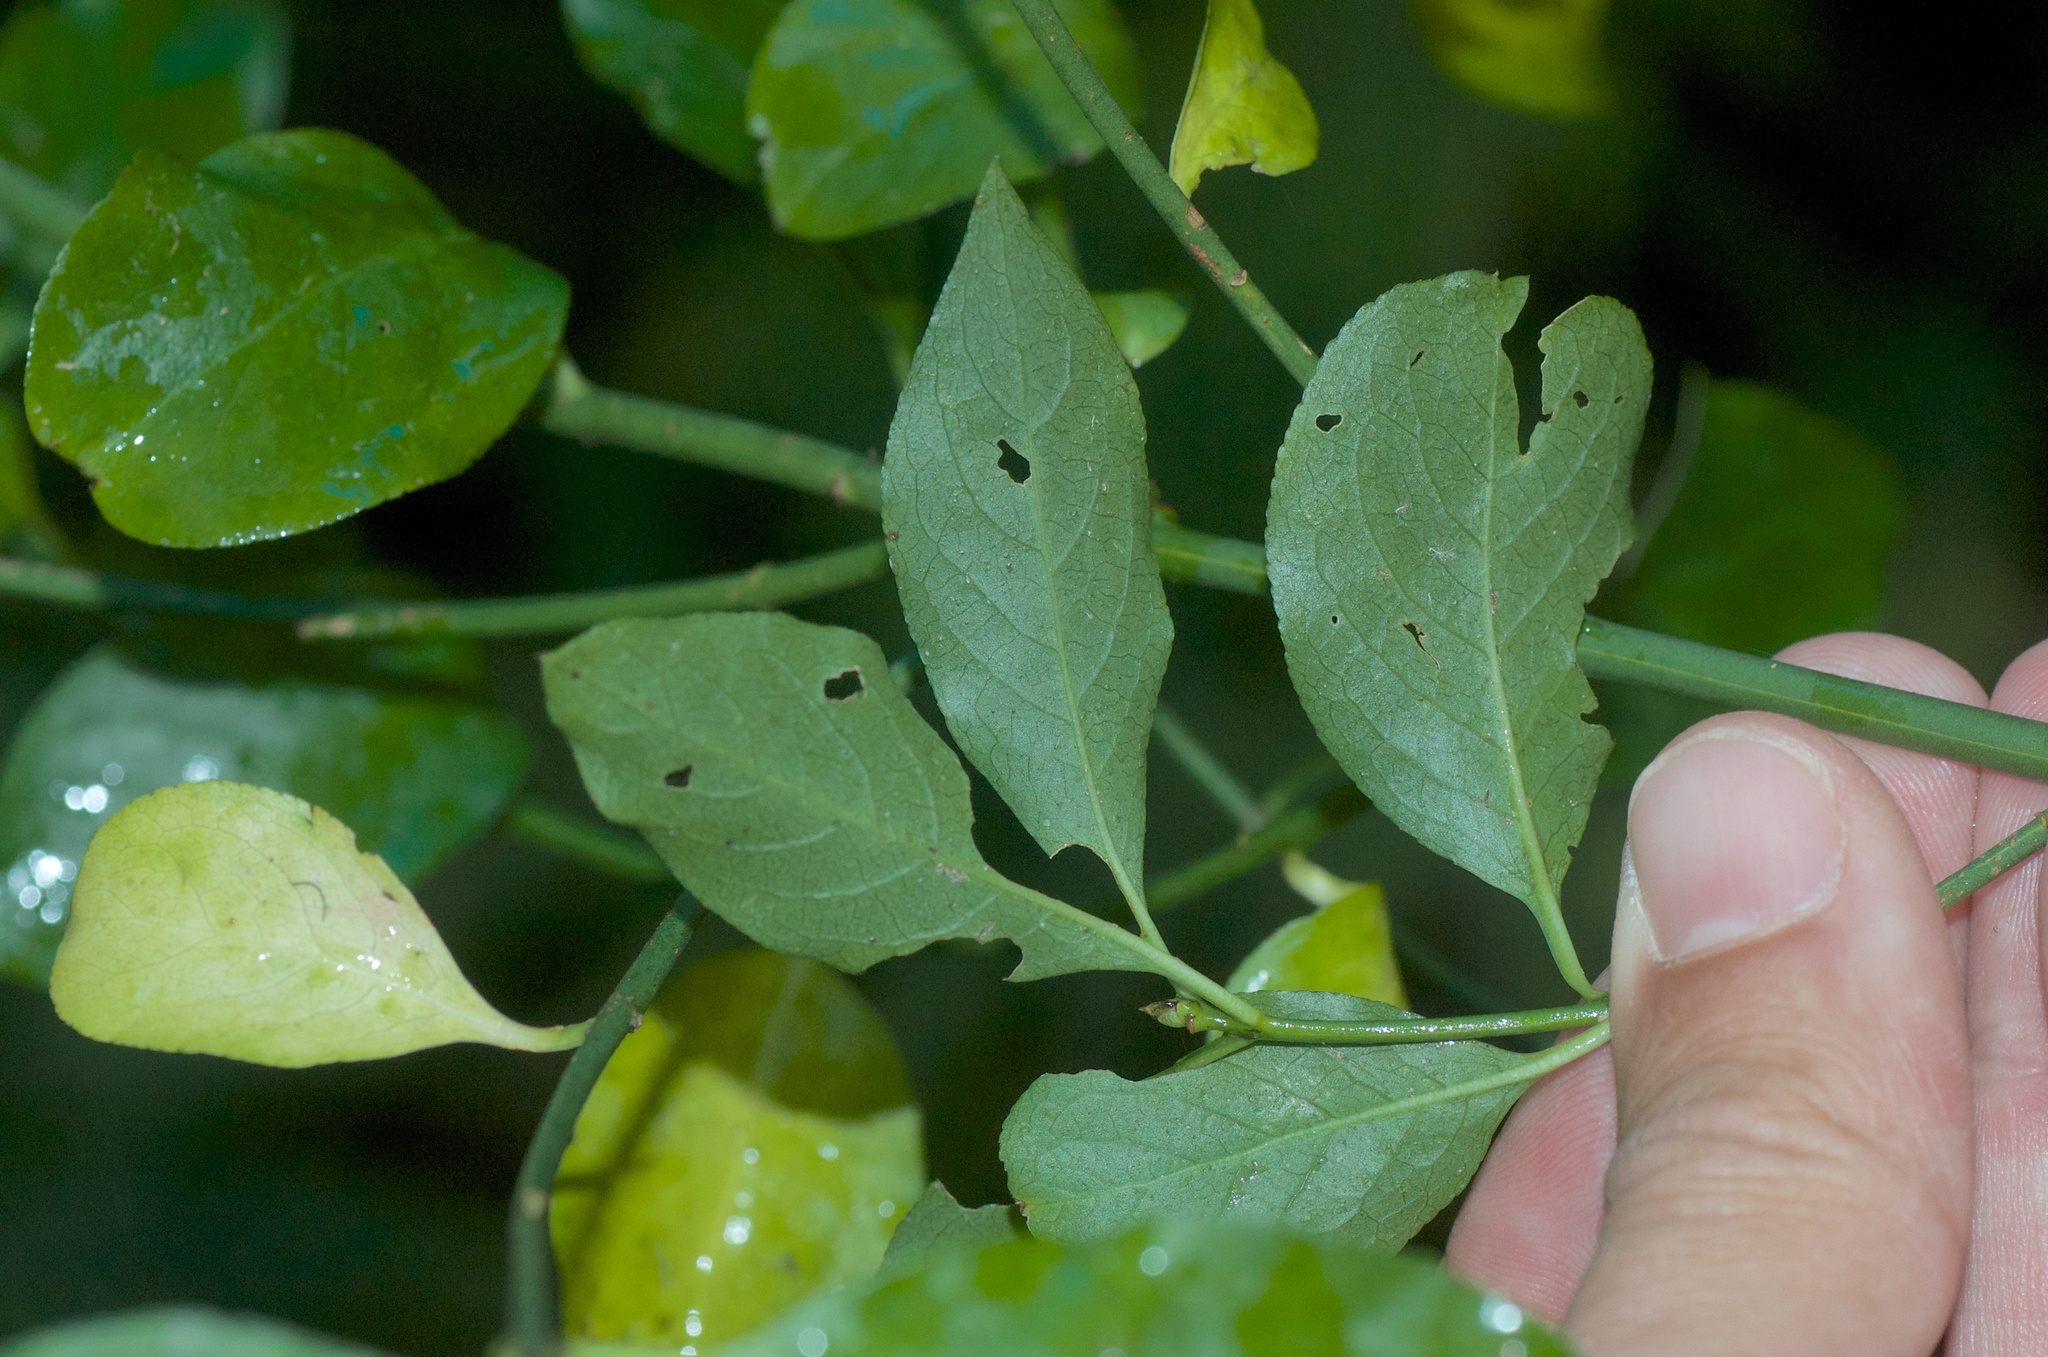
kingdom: Plantae
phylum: Tracheophyta
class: Magnoliopsida
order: Celastrales
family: Celastraceae
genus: Euonymus
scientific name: Euonymus europaeus
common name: Spindle
